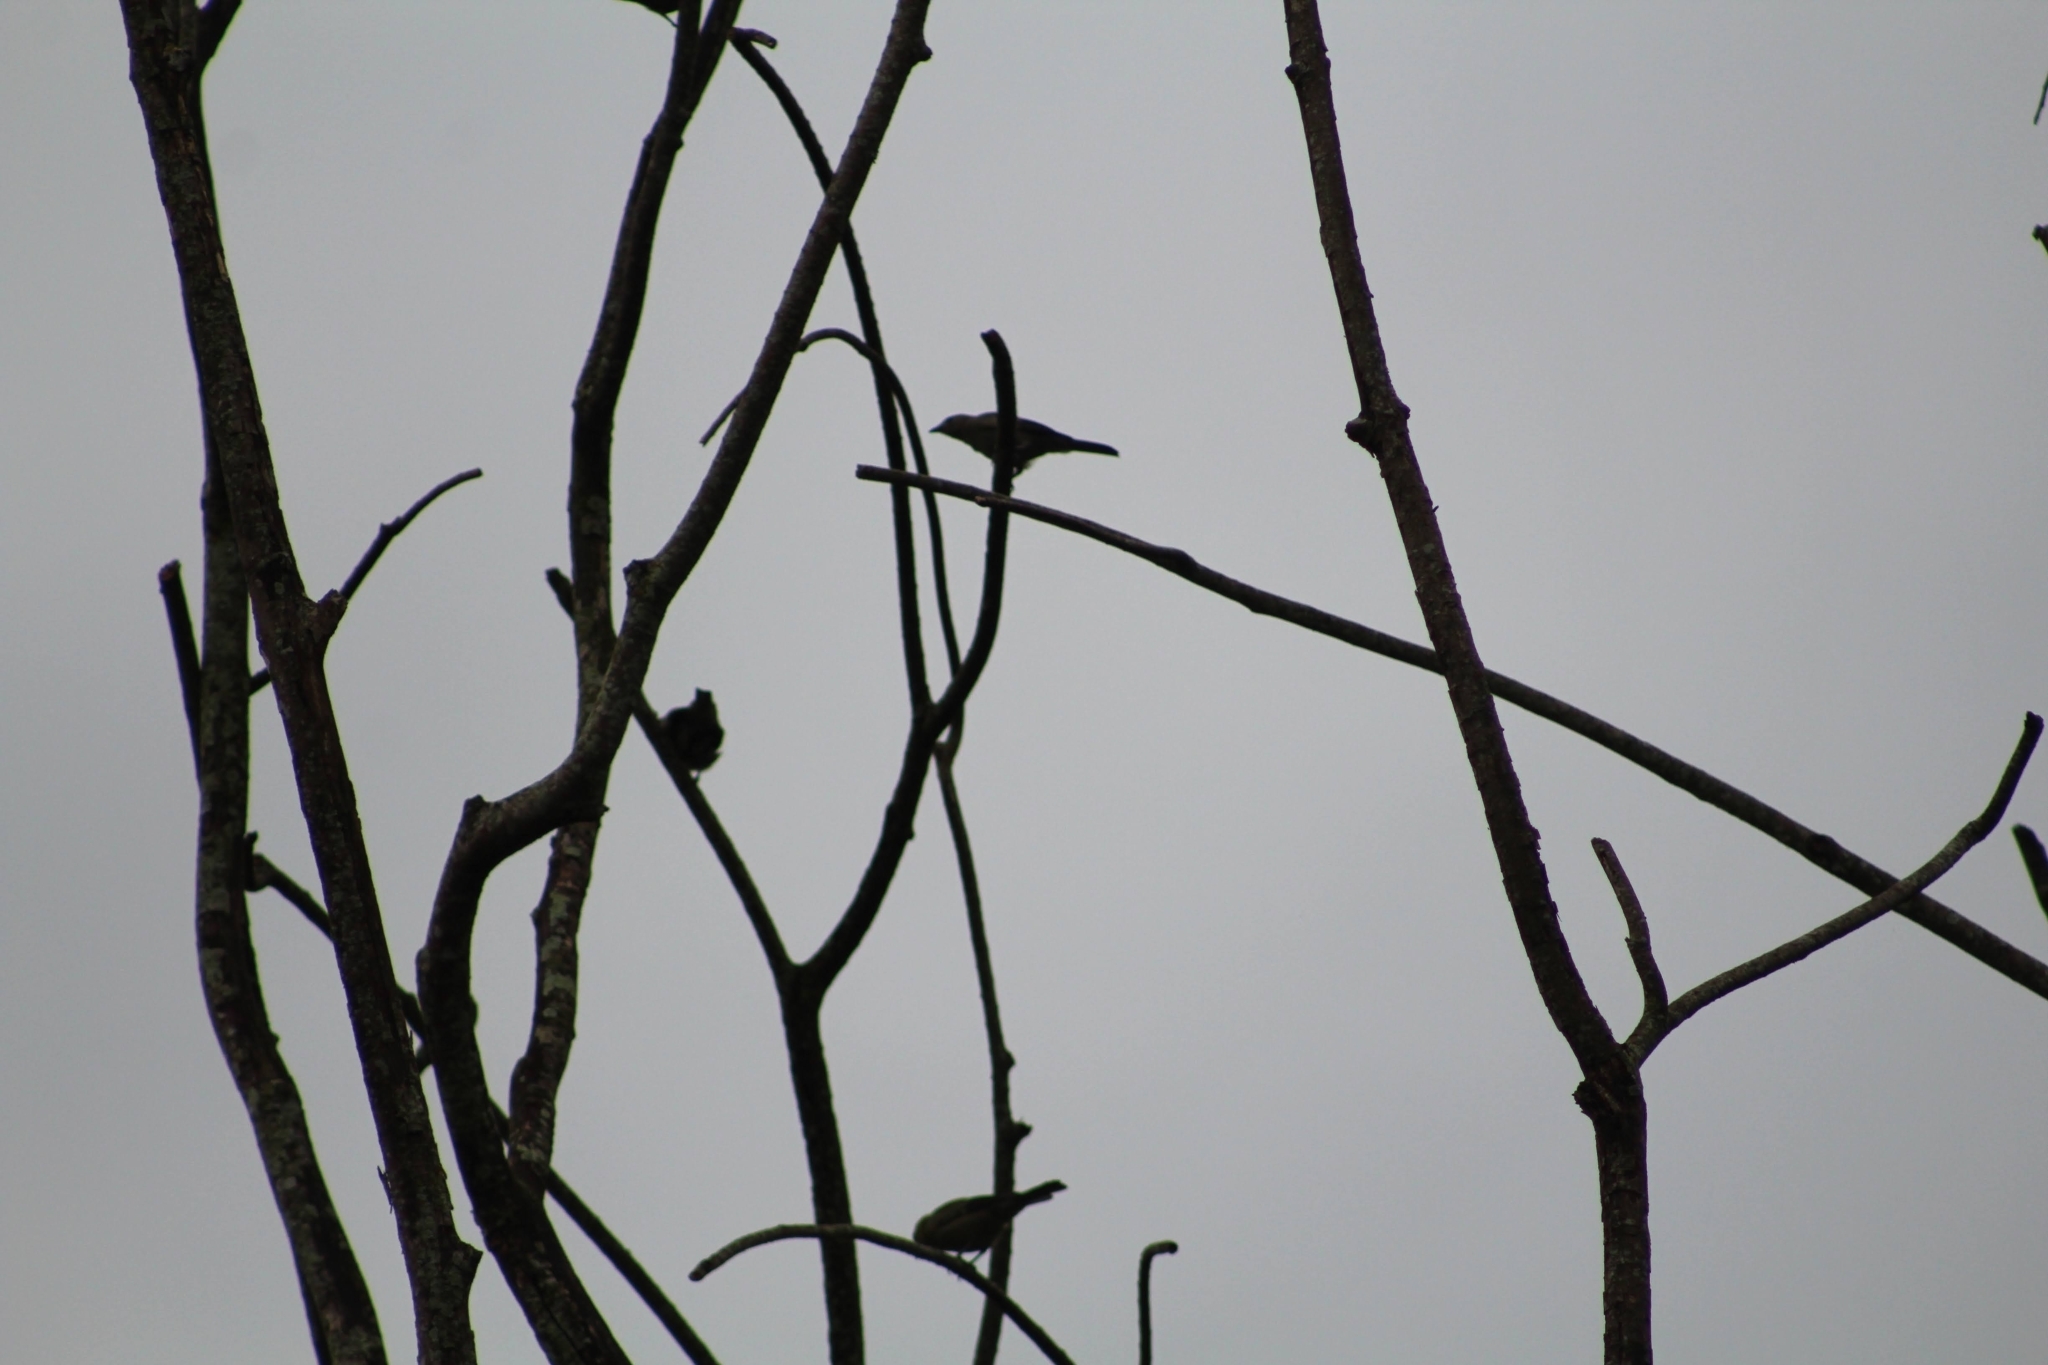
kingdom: Animalia
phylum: Chordata
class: Aves
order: Passeriformes
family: Thraupidae
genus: Thraupis
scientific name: Thraupis palmarum
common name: Palm tanager
